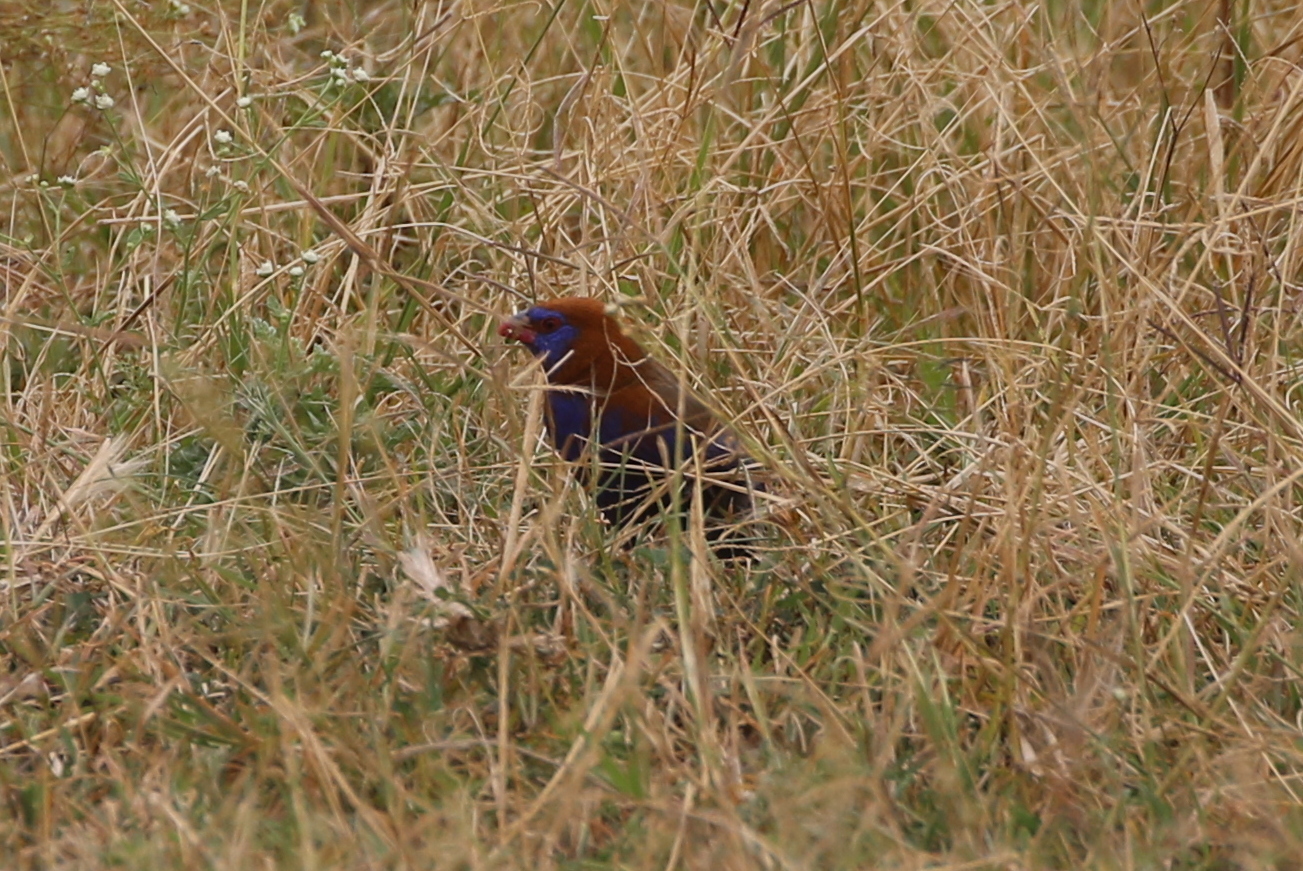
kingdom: Animalia
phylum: Chordata
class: Aves
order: Passeriformes
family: Estrildidae
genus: Uraeginthus
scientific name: Uraeginthus ianthinogaster
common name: Purple grenadier
